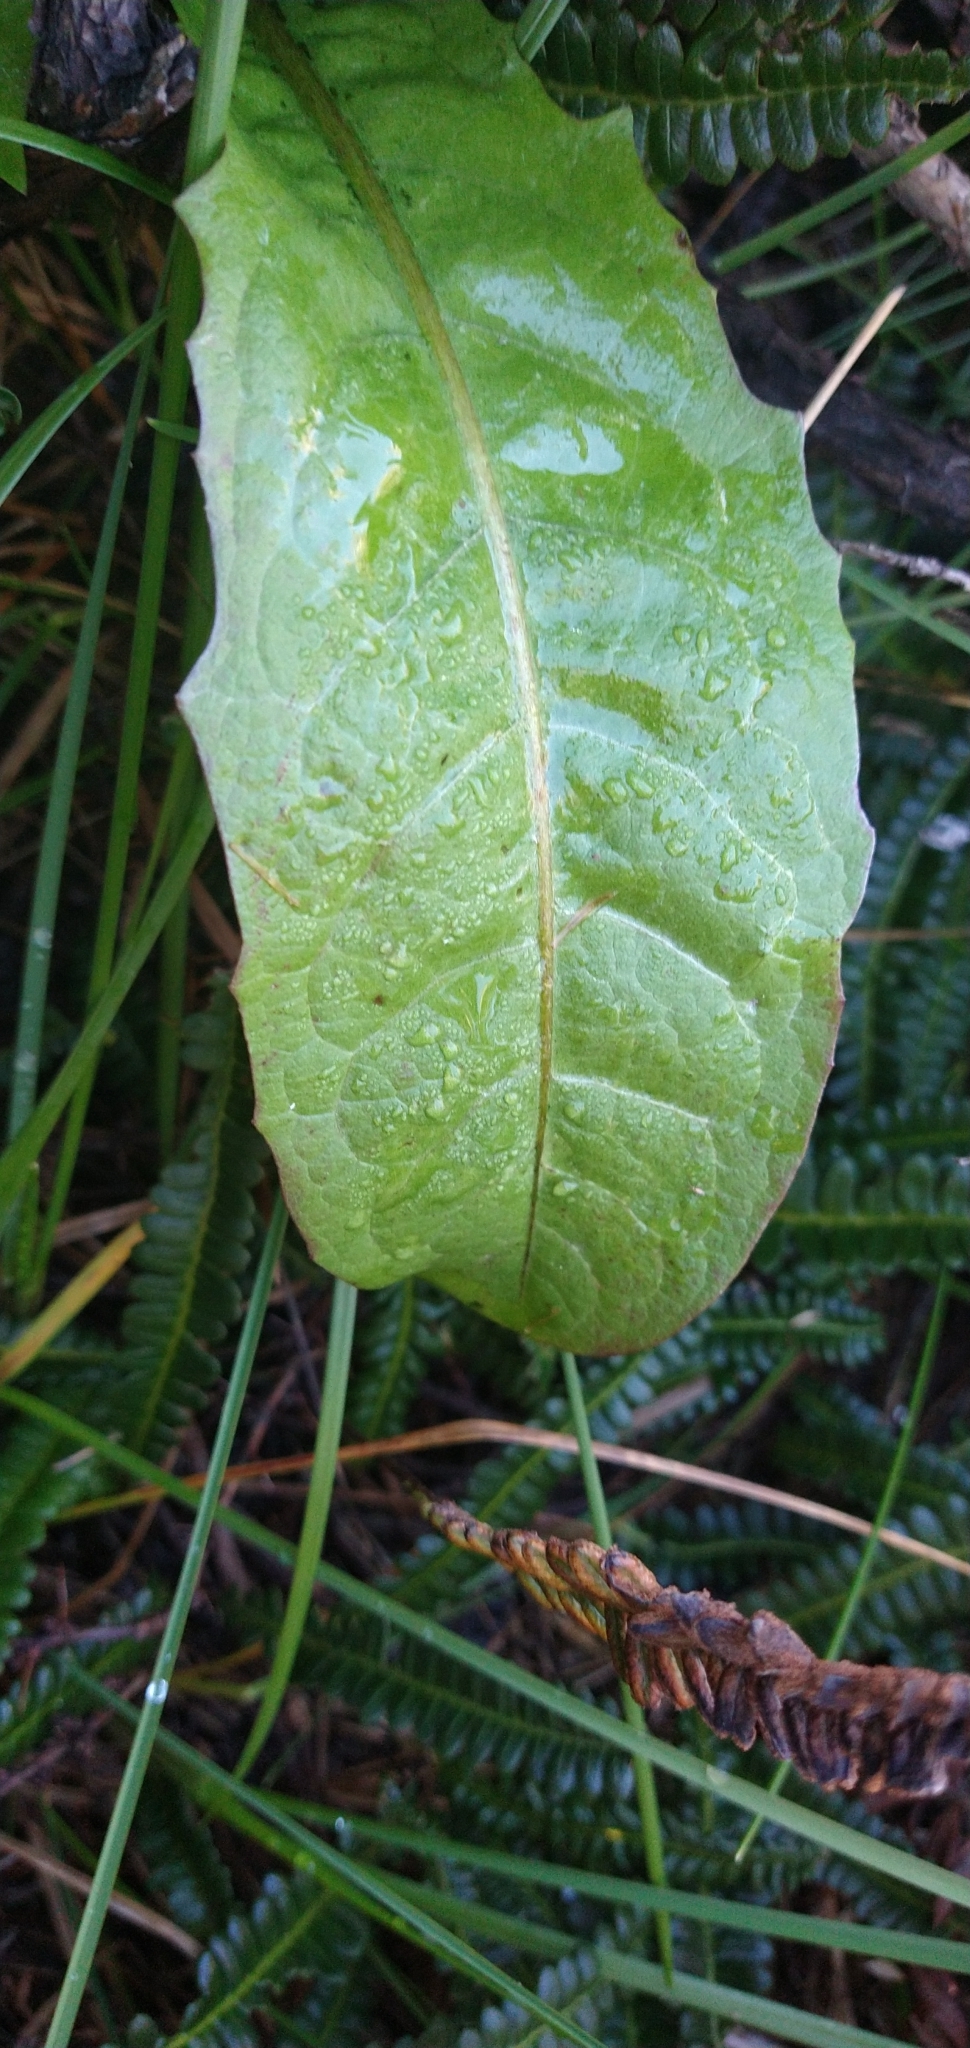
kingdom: Plantae
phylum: Tracheophyta
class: Magnoliopsida
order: Asterales
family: Asteraceae
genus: Taraxacum
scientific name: Taraxacum officinale
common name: Common dandelion
